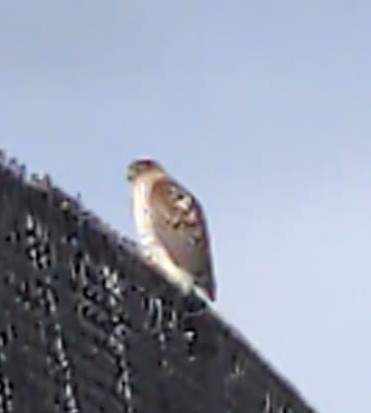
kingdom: Animalia
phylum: Chordata
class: Aves
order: Accipitriformes
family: Accipitridae
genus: Accipiter
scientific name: Accipiter
